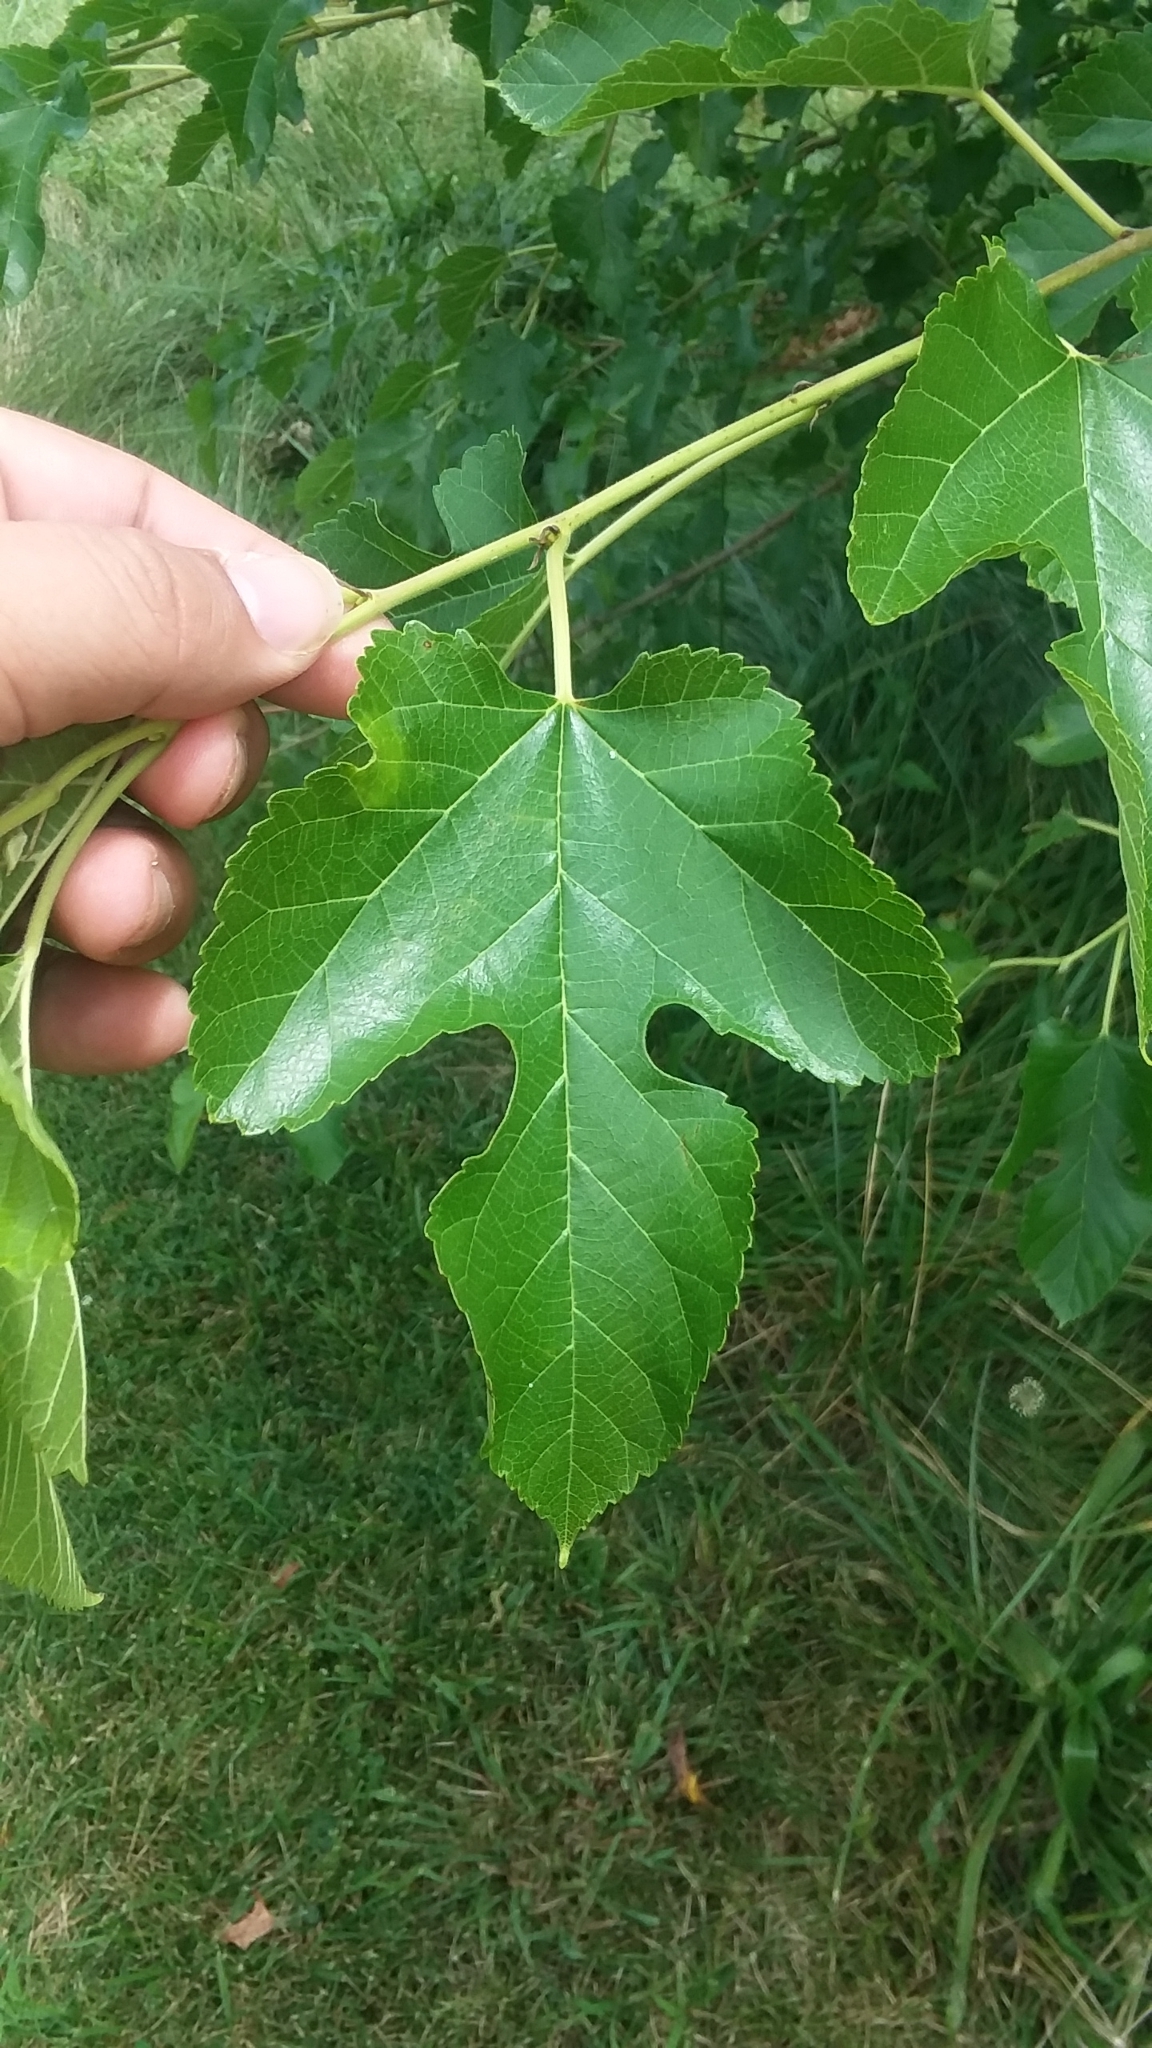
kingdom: Plantae
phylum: Tracheophyta
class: Magnoliopsida
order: Rosales
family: Moraceae
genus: Morus
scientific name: Morus alba
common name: White mulberry
